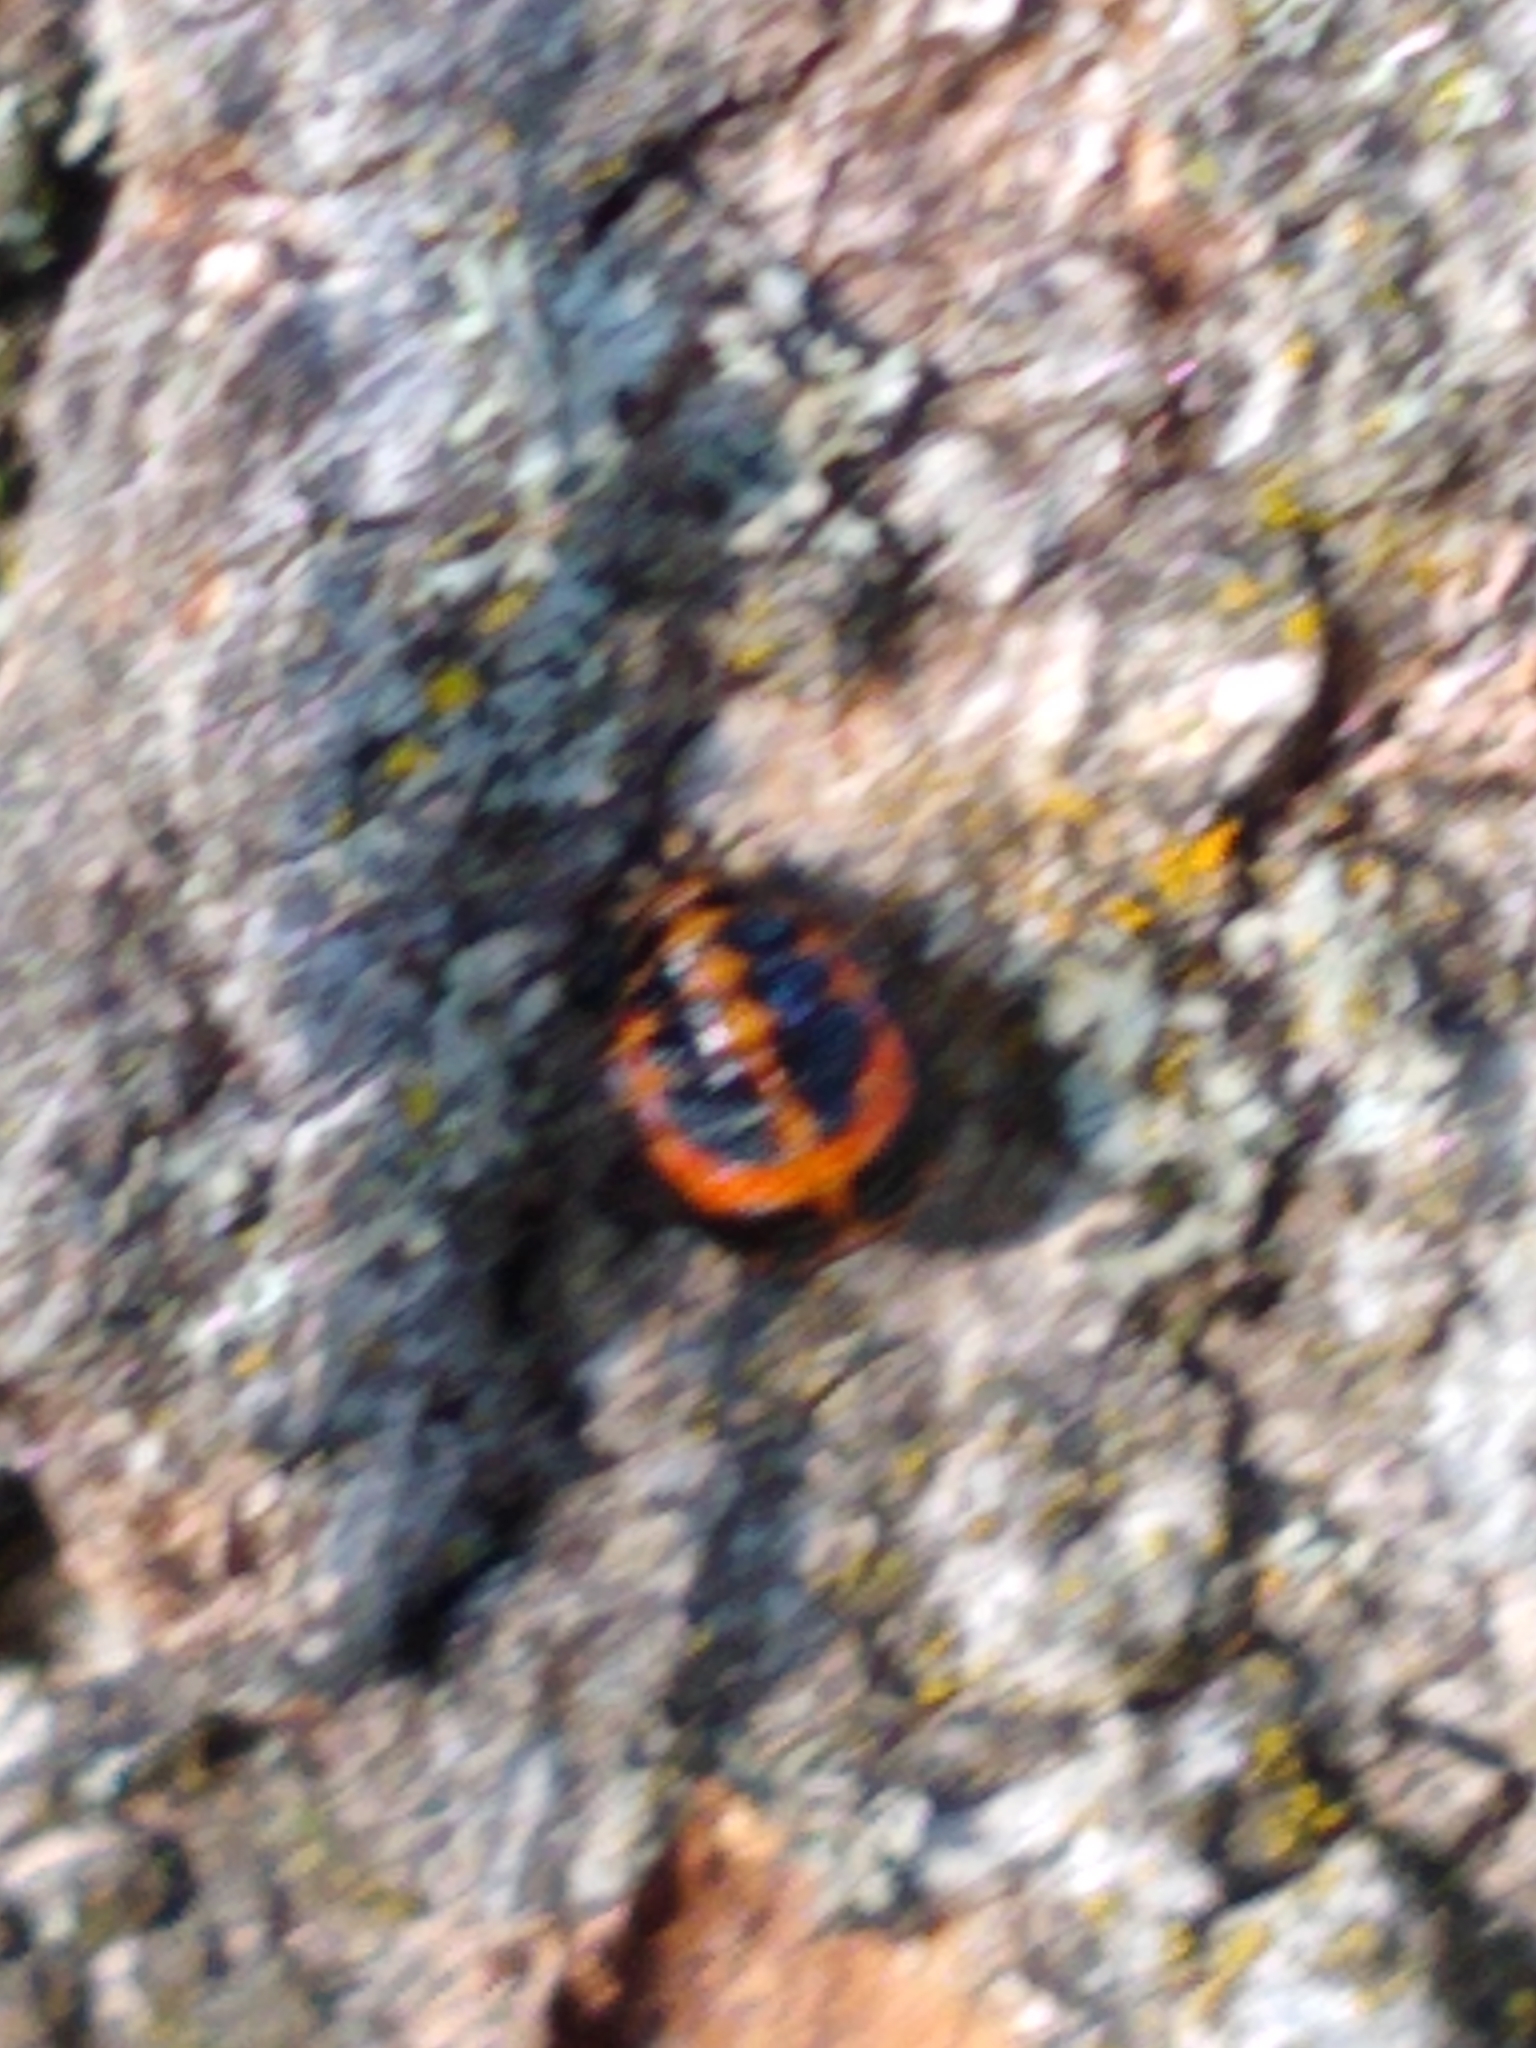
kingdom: Animalia
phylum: Arthropoda
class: Insecta
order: Coleoptera
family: Coccinellidae
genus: Harmonia
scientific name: Harmonia axyridis
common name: Harlequin ladybird
